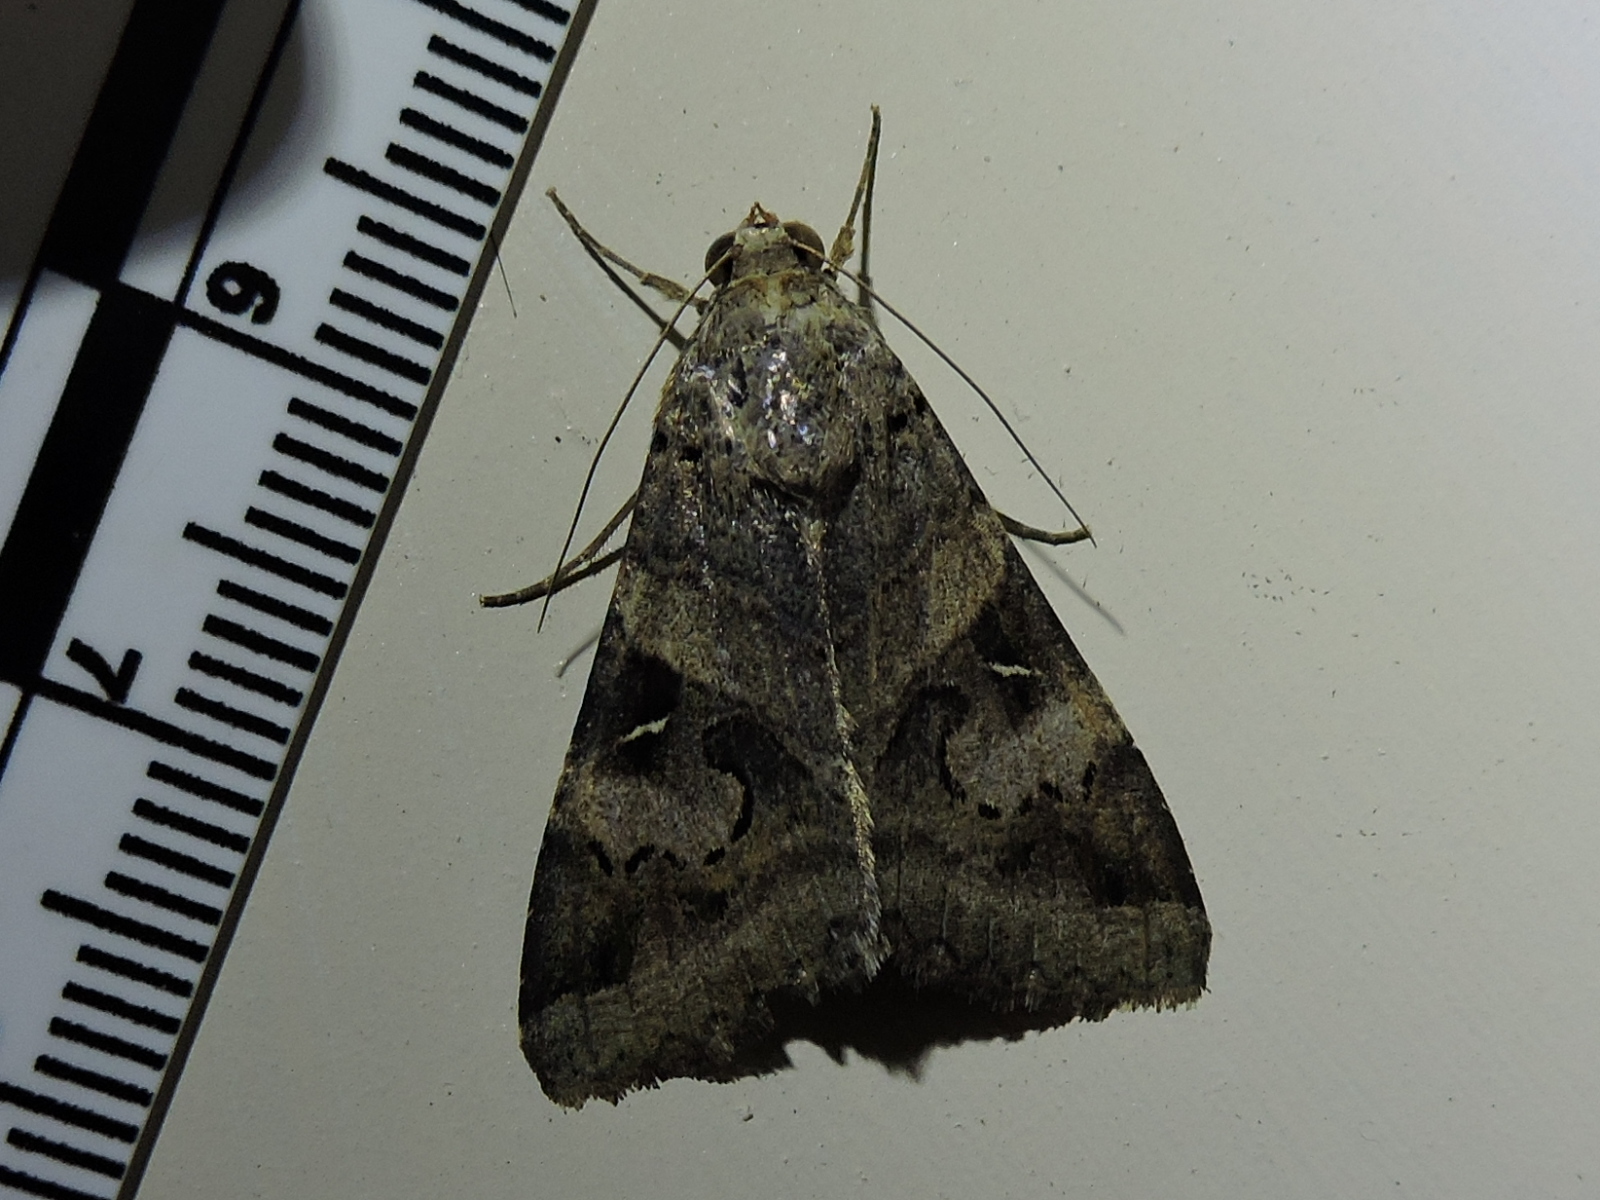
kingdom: Animalia
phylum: Arthropoda
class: Insecta
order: Lepidoptera
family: Erebidae
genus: Melipotis
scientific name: Melipotis indomita
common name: Moth
